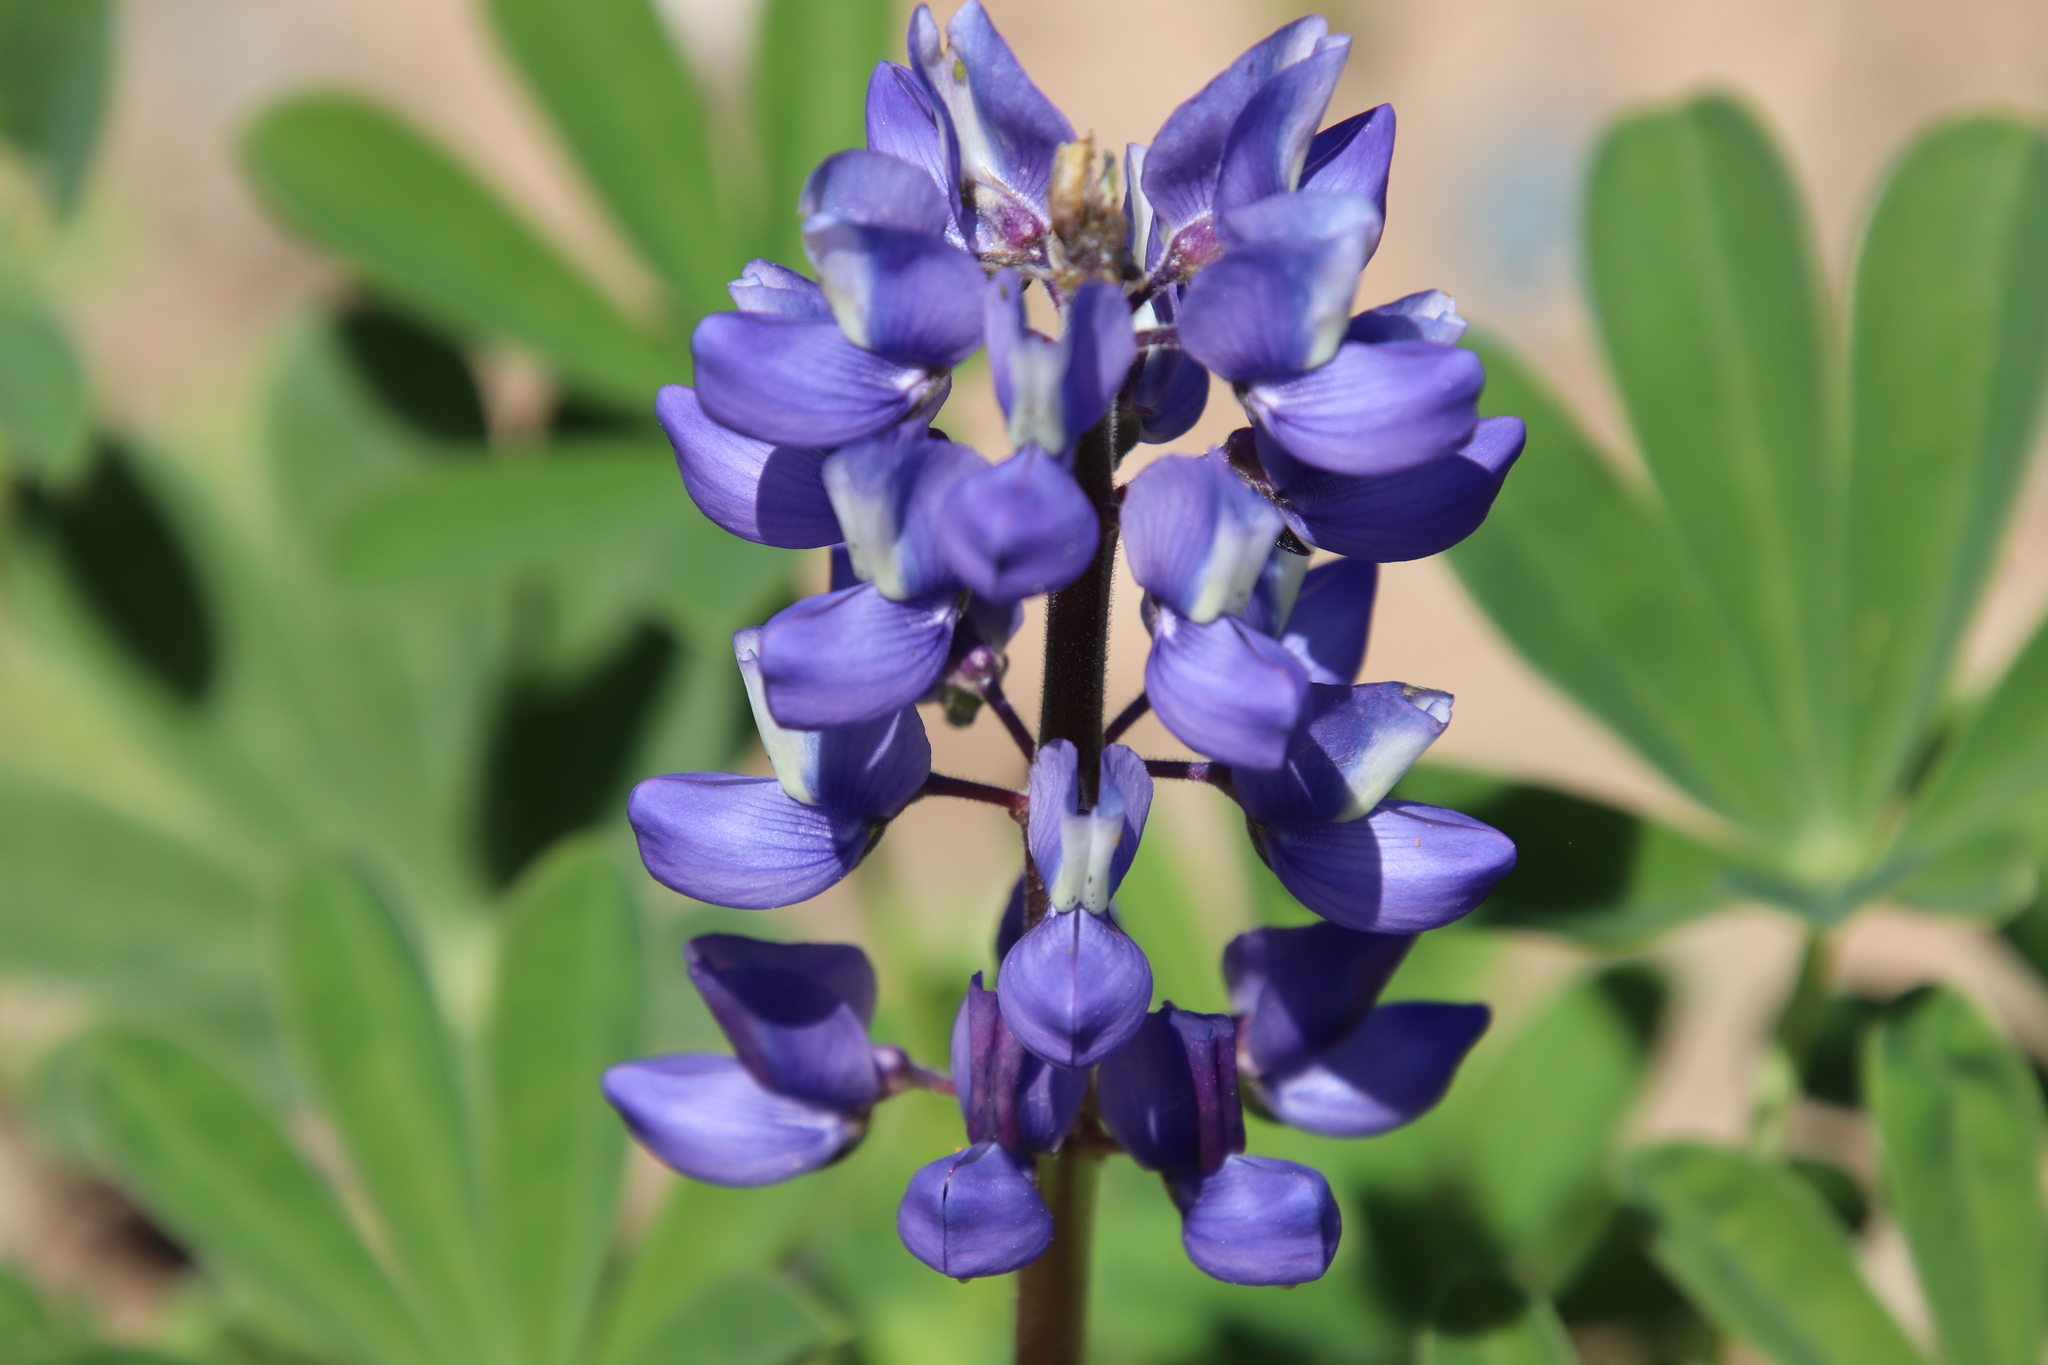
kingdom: Plantae
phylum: Tracheophyta
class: Magnoliopsida
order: Fabales
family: Fabaceae
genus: Lupinus
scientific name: Lupinus succulentus
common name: Arroyo lupine
